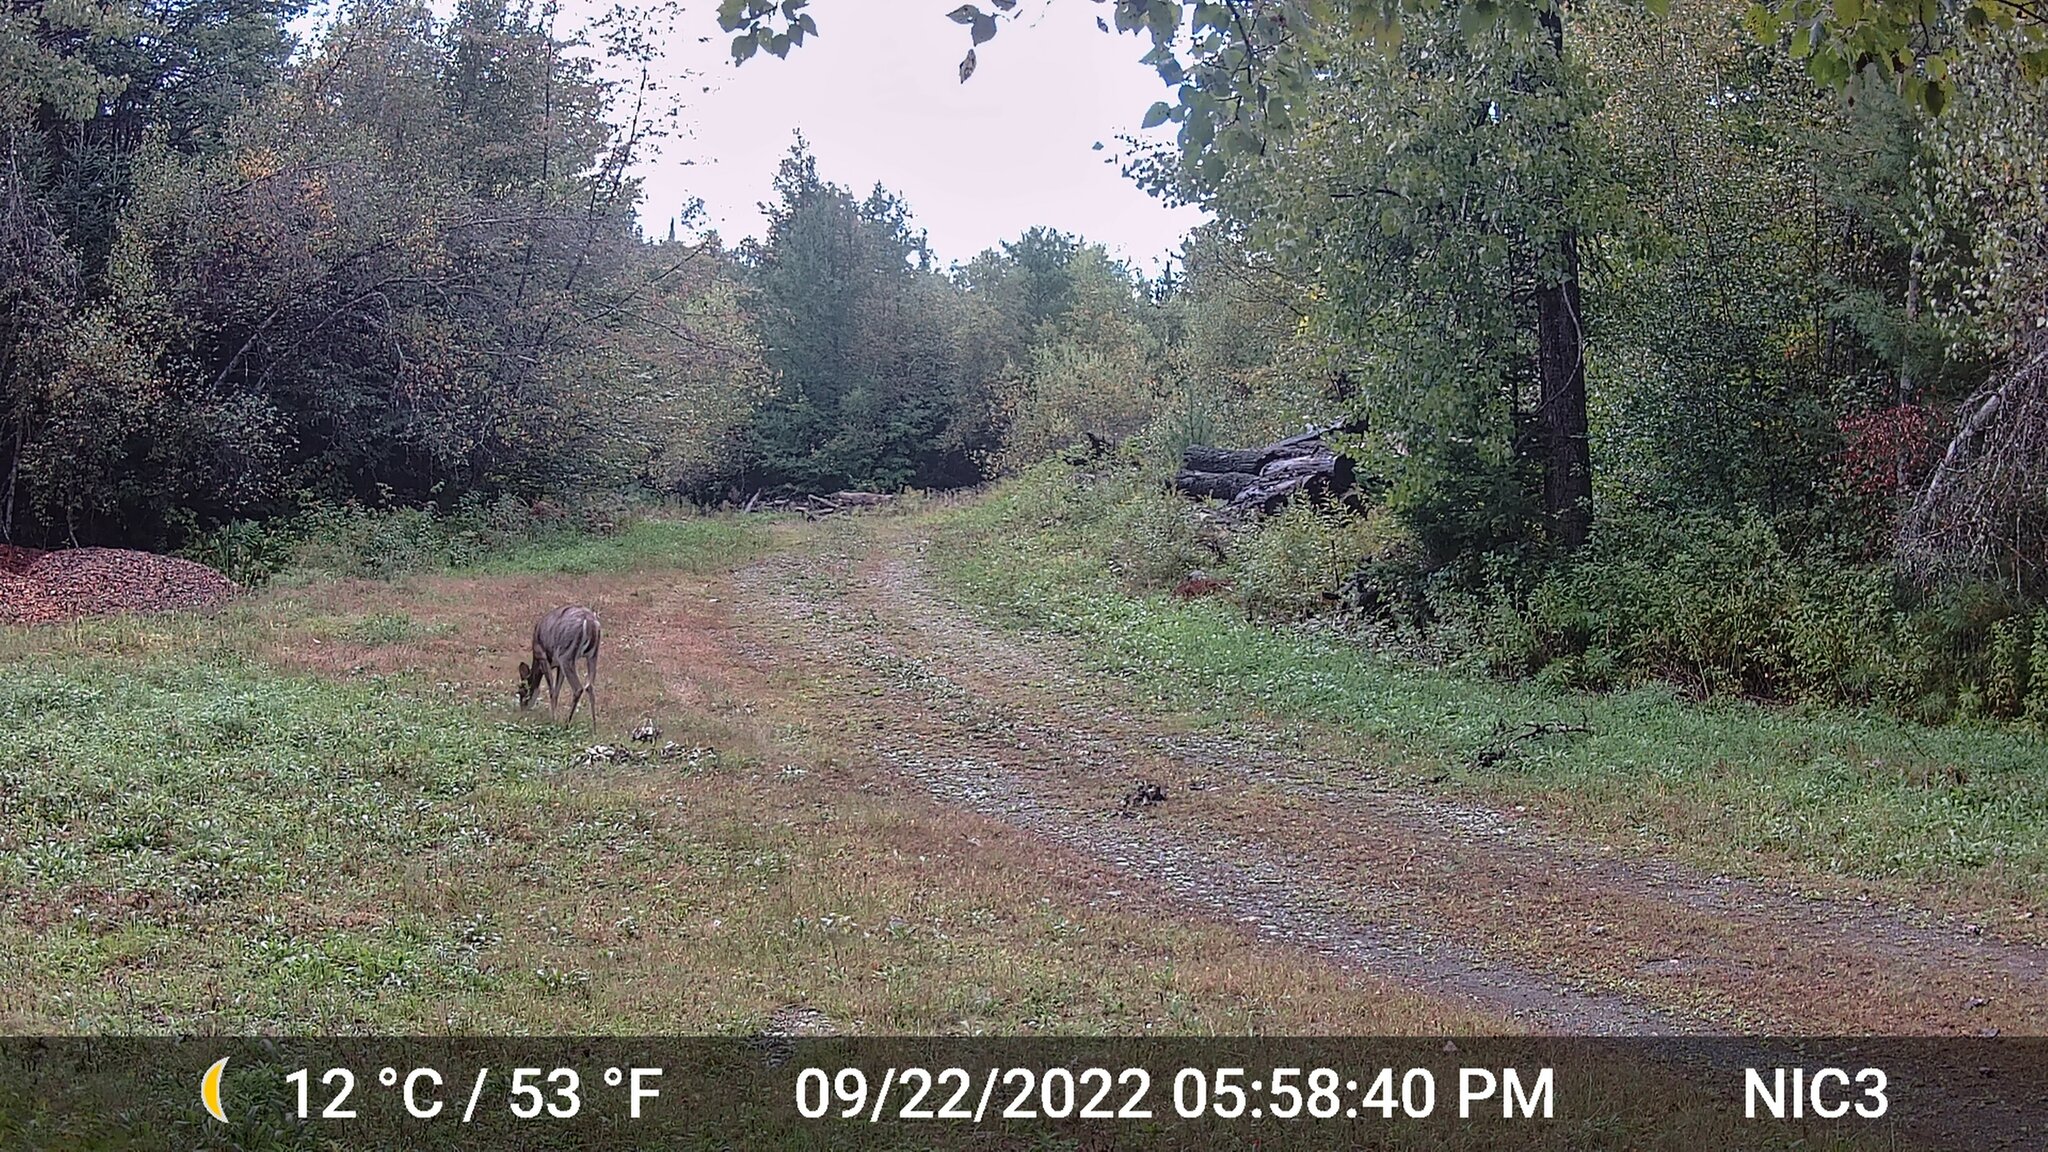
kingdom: Animalia
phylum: Chordata
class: Mammalia
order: Artiodactyla
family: Cervidae
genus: Odocoileus
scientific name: Odocoileus virginianus
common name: White-tailed deer
